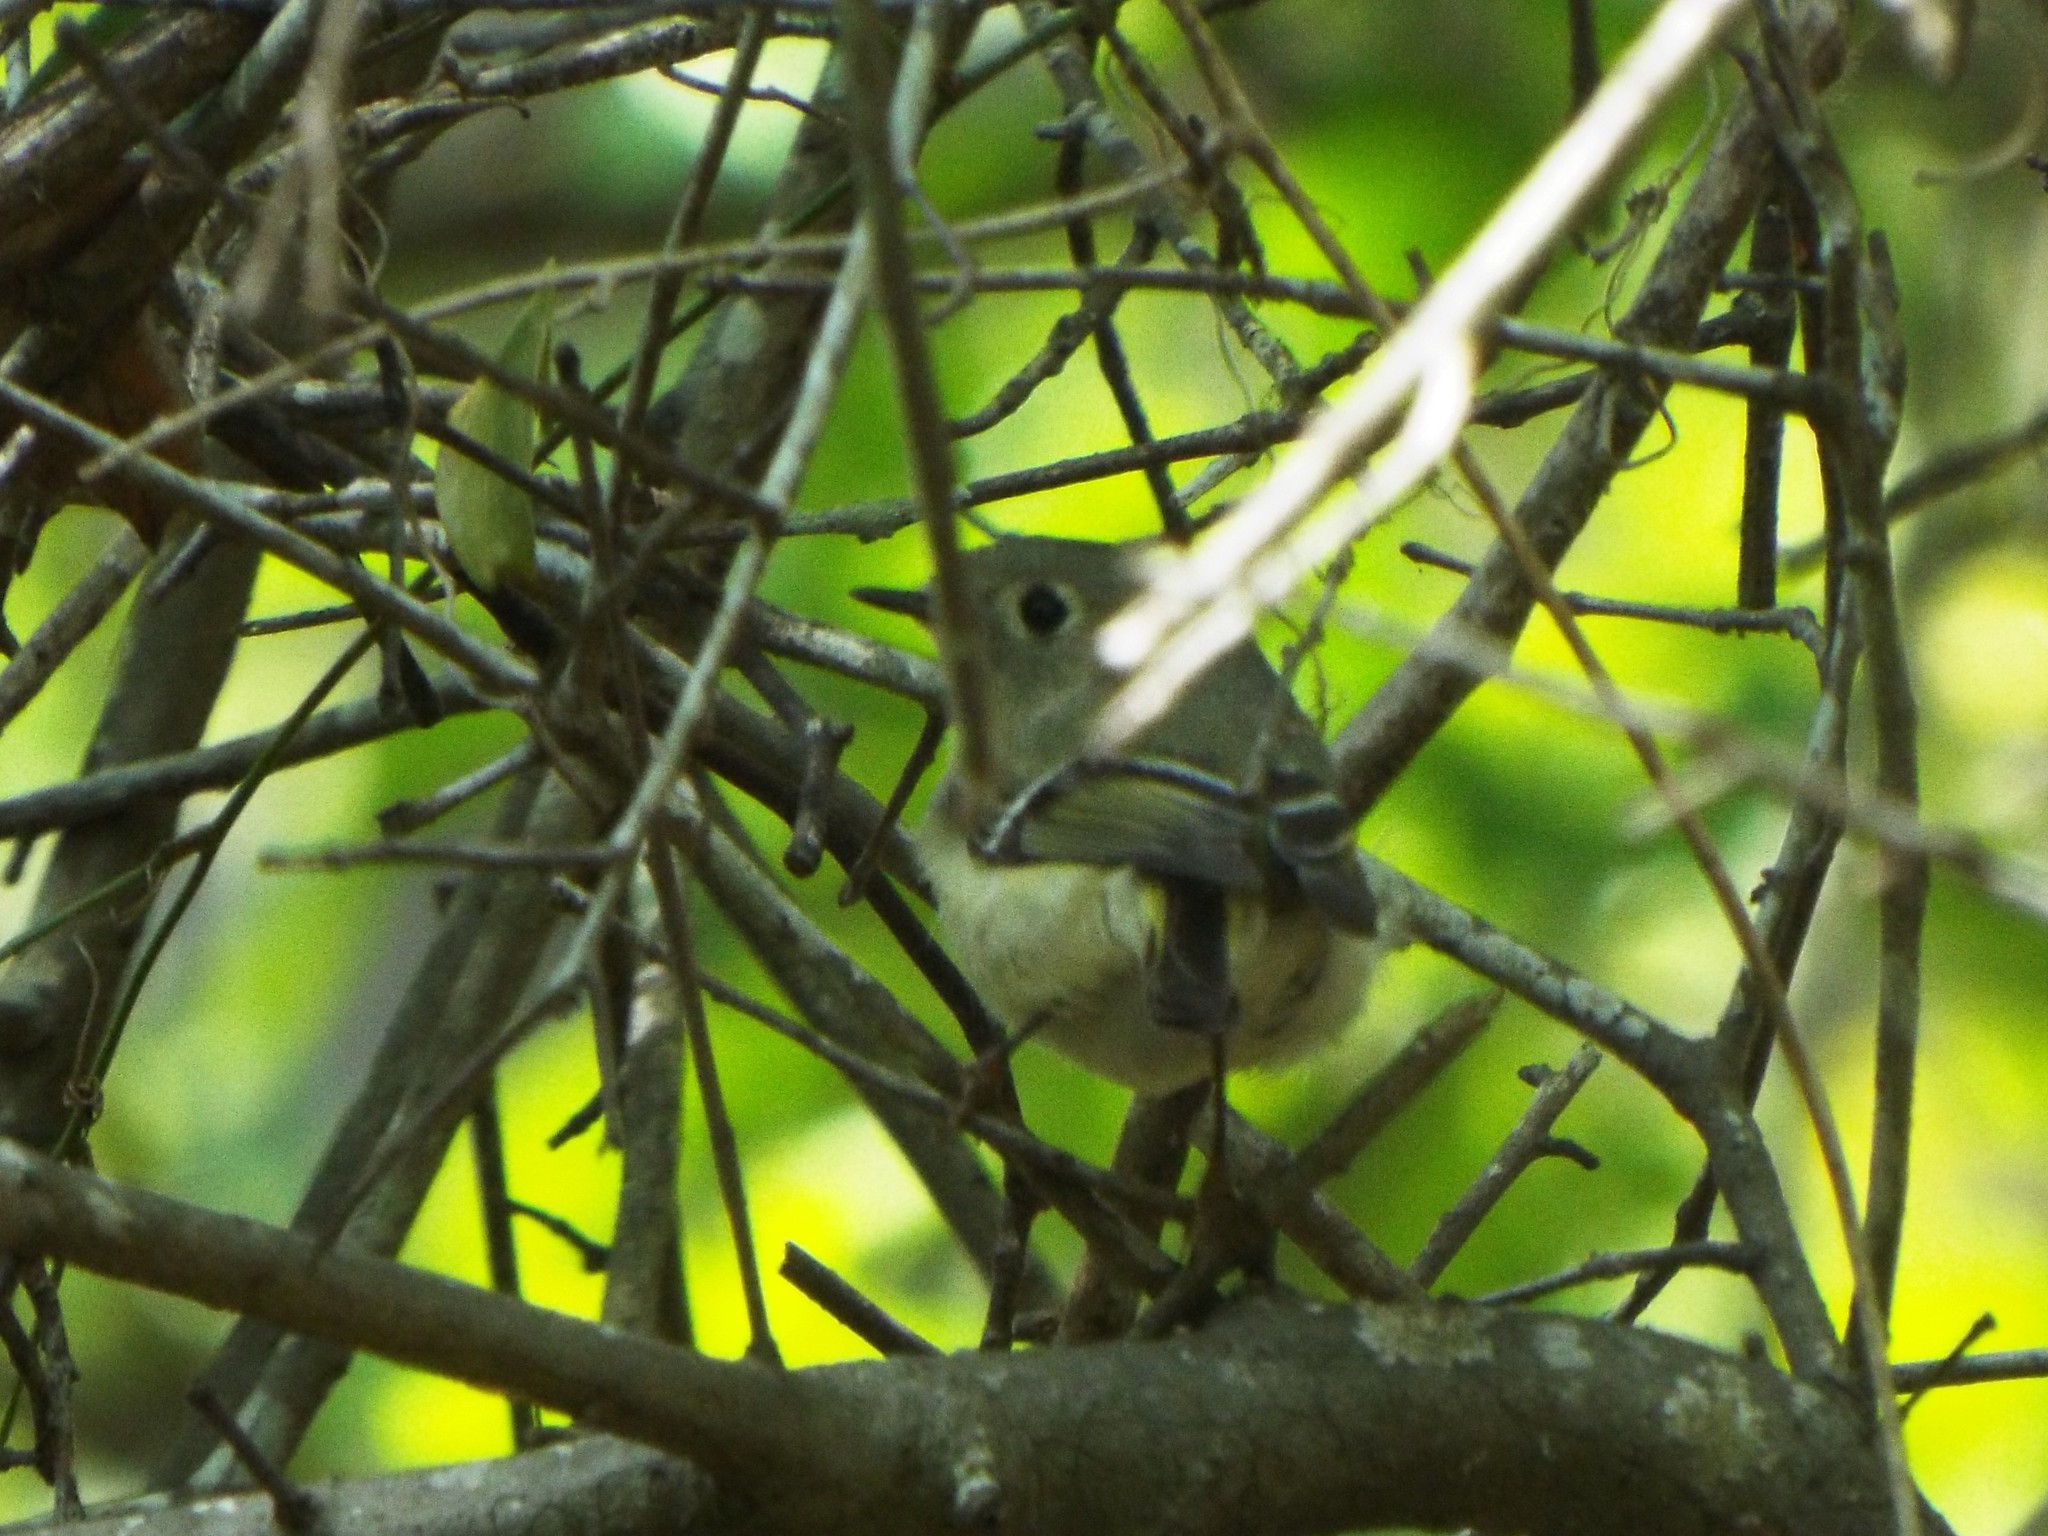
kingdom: Animalia
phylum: Chordata
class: Aves
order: Passeriformes
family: Regulidae
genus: Regulus
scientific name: Regulus calendula
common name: Ruby-crowned kinglet
